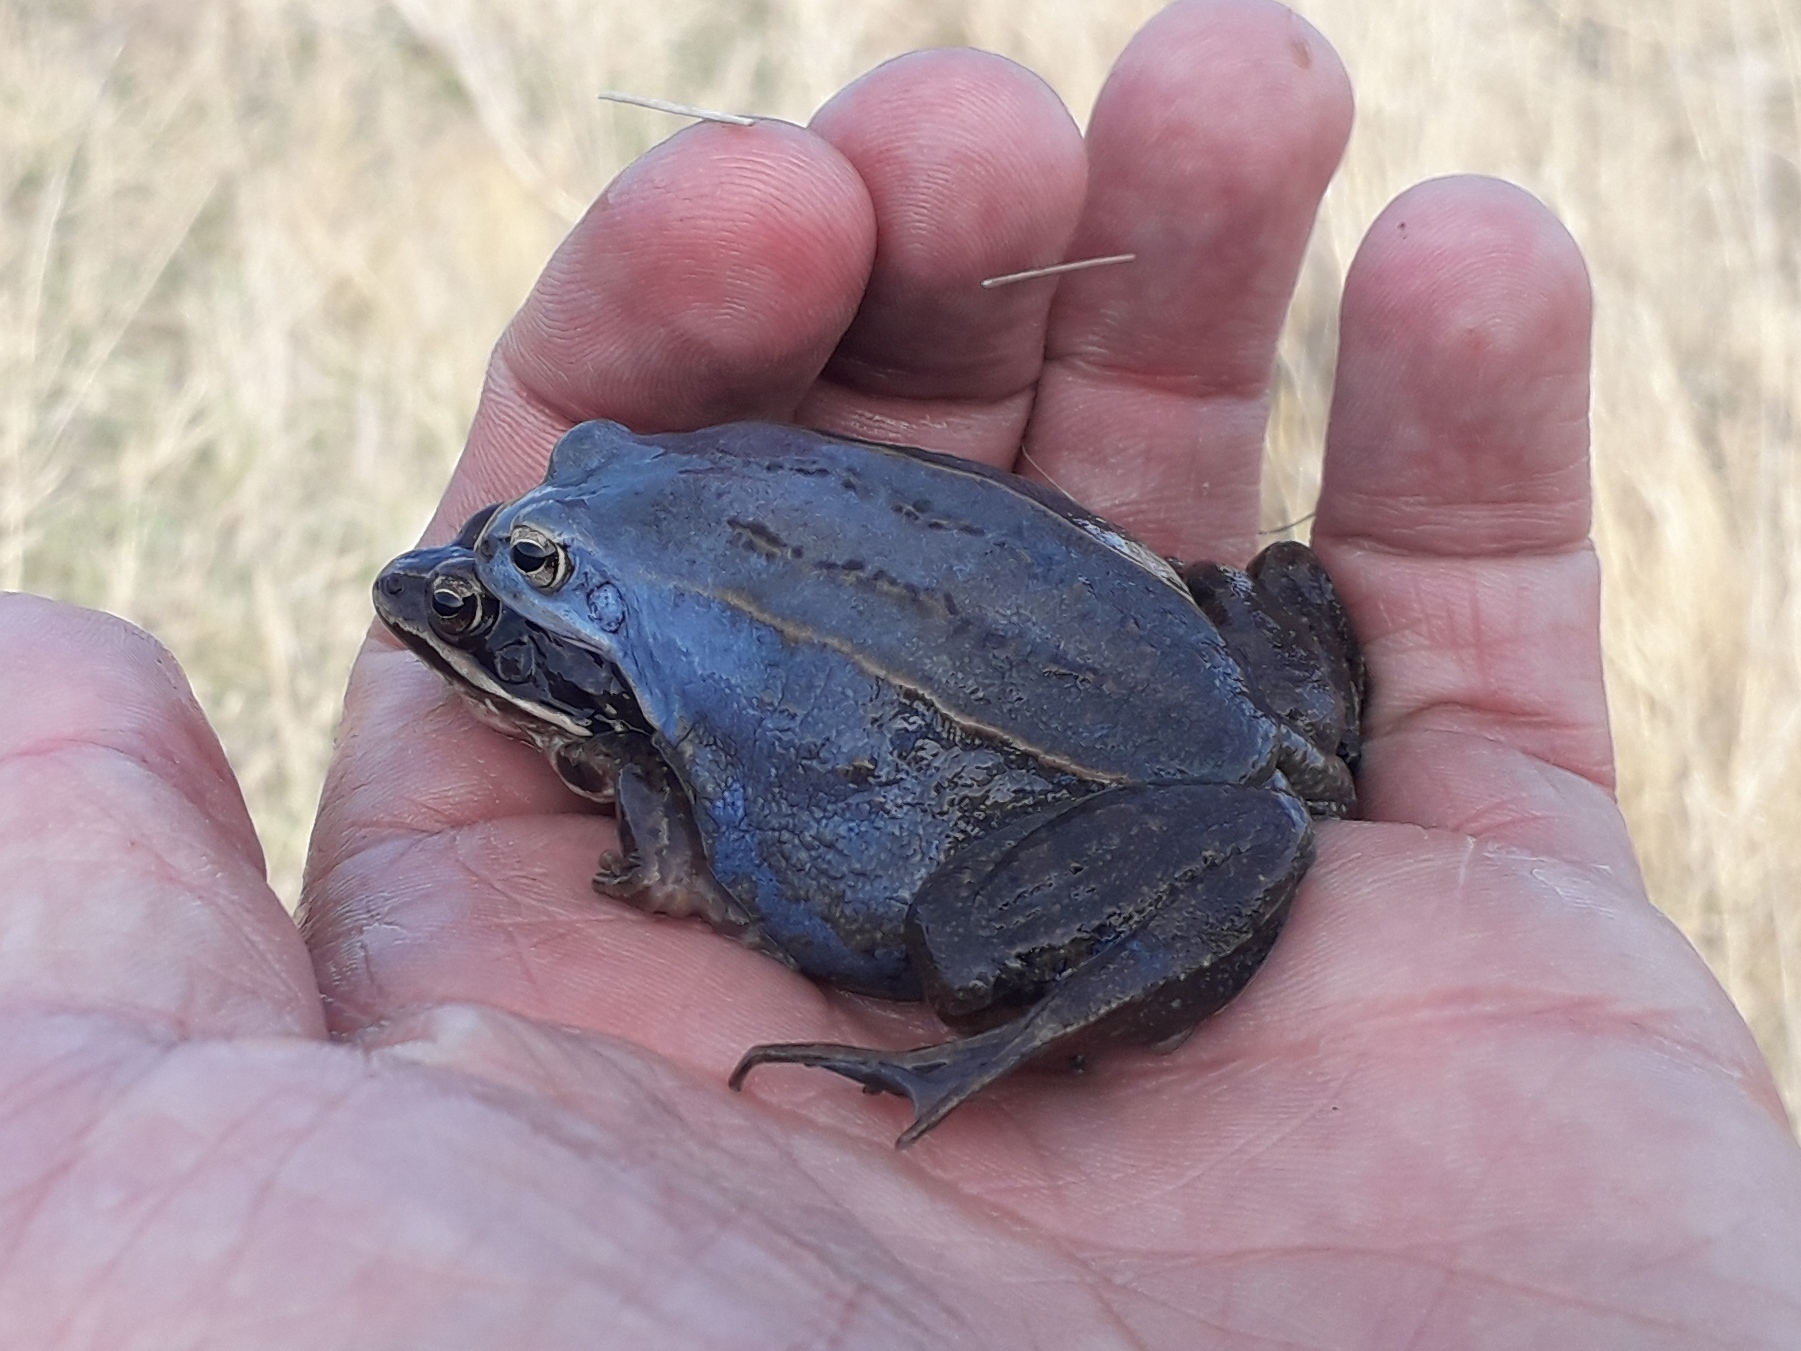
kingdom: Animalia
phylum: Chordata
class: Amphibia
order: Anura
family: Ranidae
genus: Rana
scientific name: Rana arvalis
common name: Moor frog
